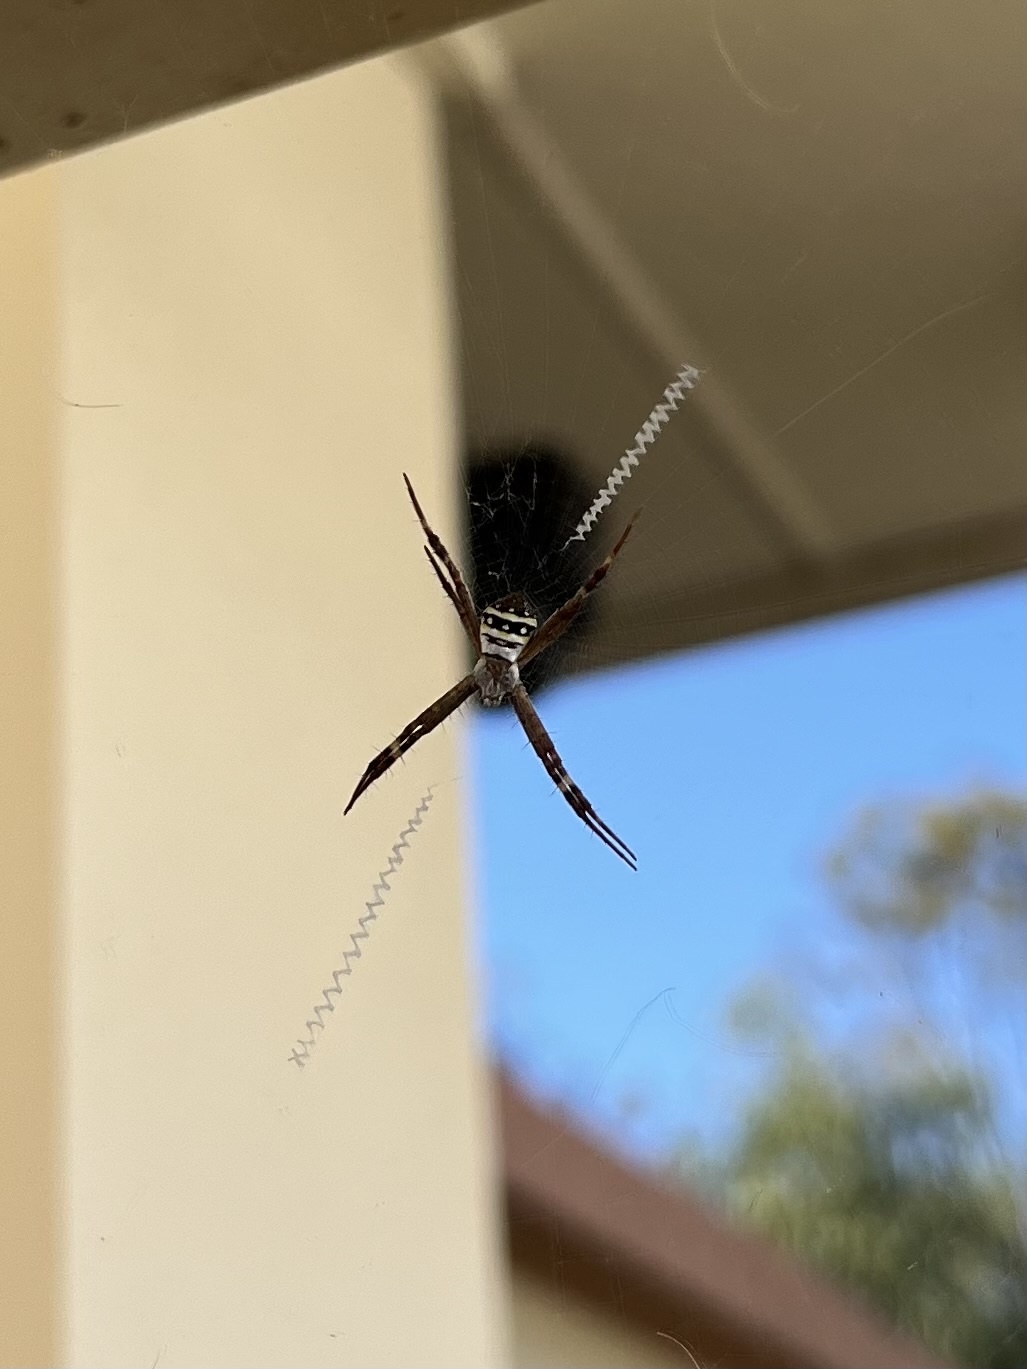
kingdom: Animalia
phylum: Arthropoda
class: Arachnida
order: Araneae
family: Araneidae
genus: Argiope
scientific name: Argiope keyserlingi
